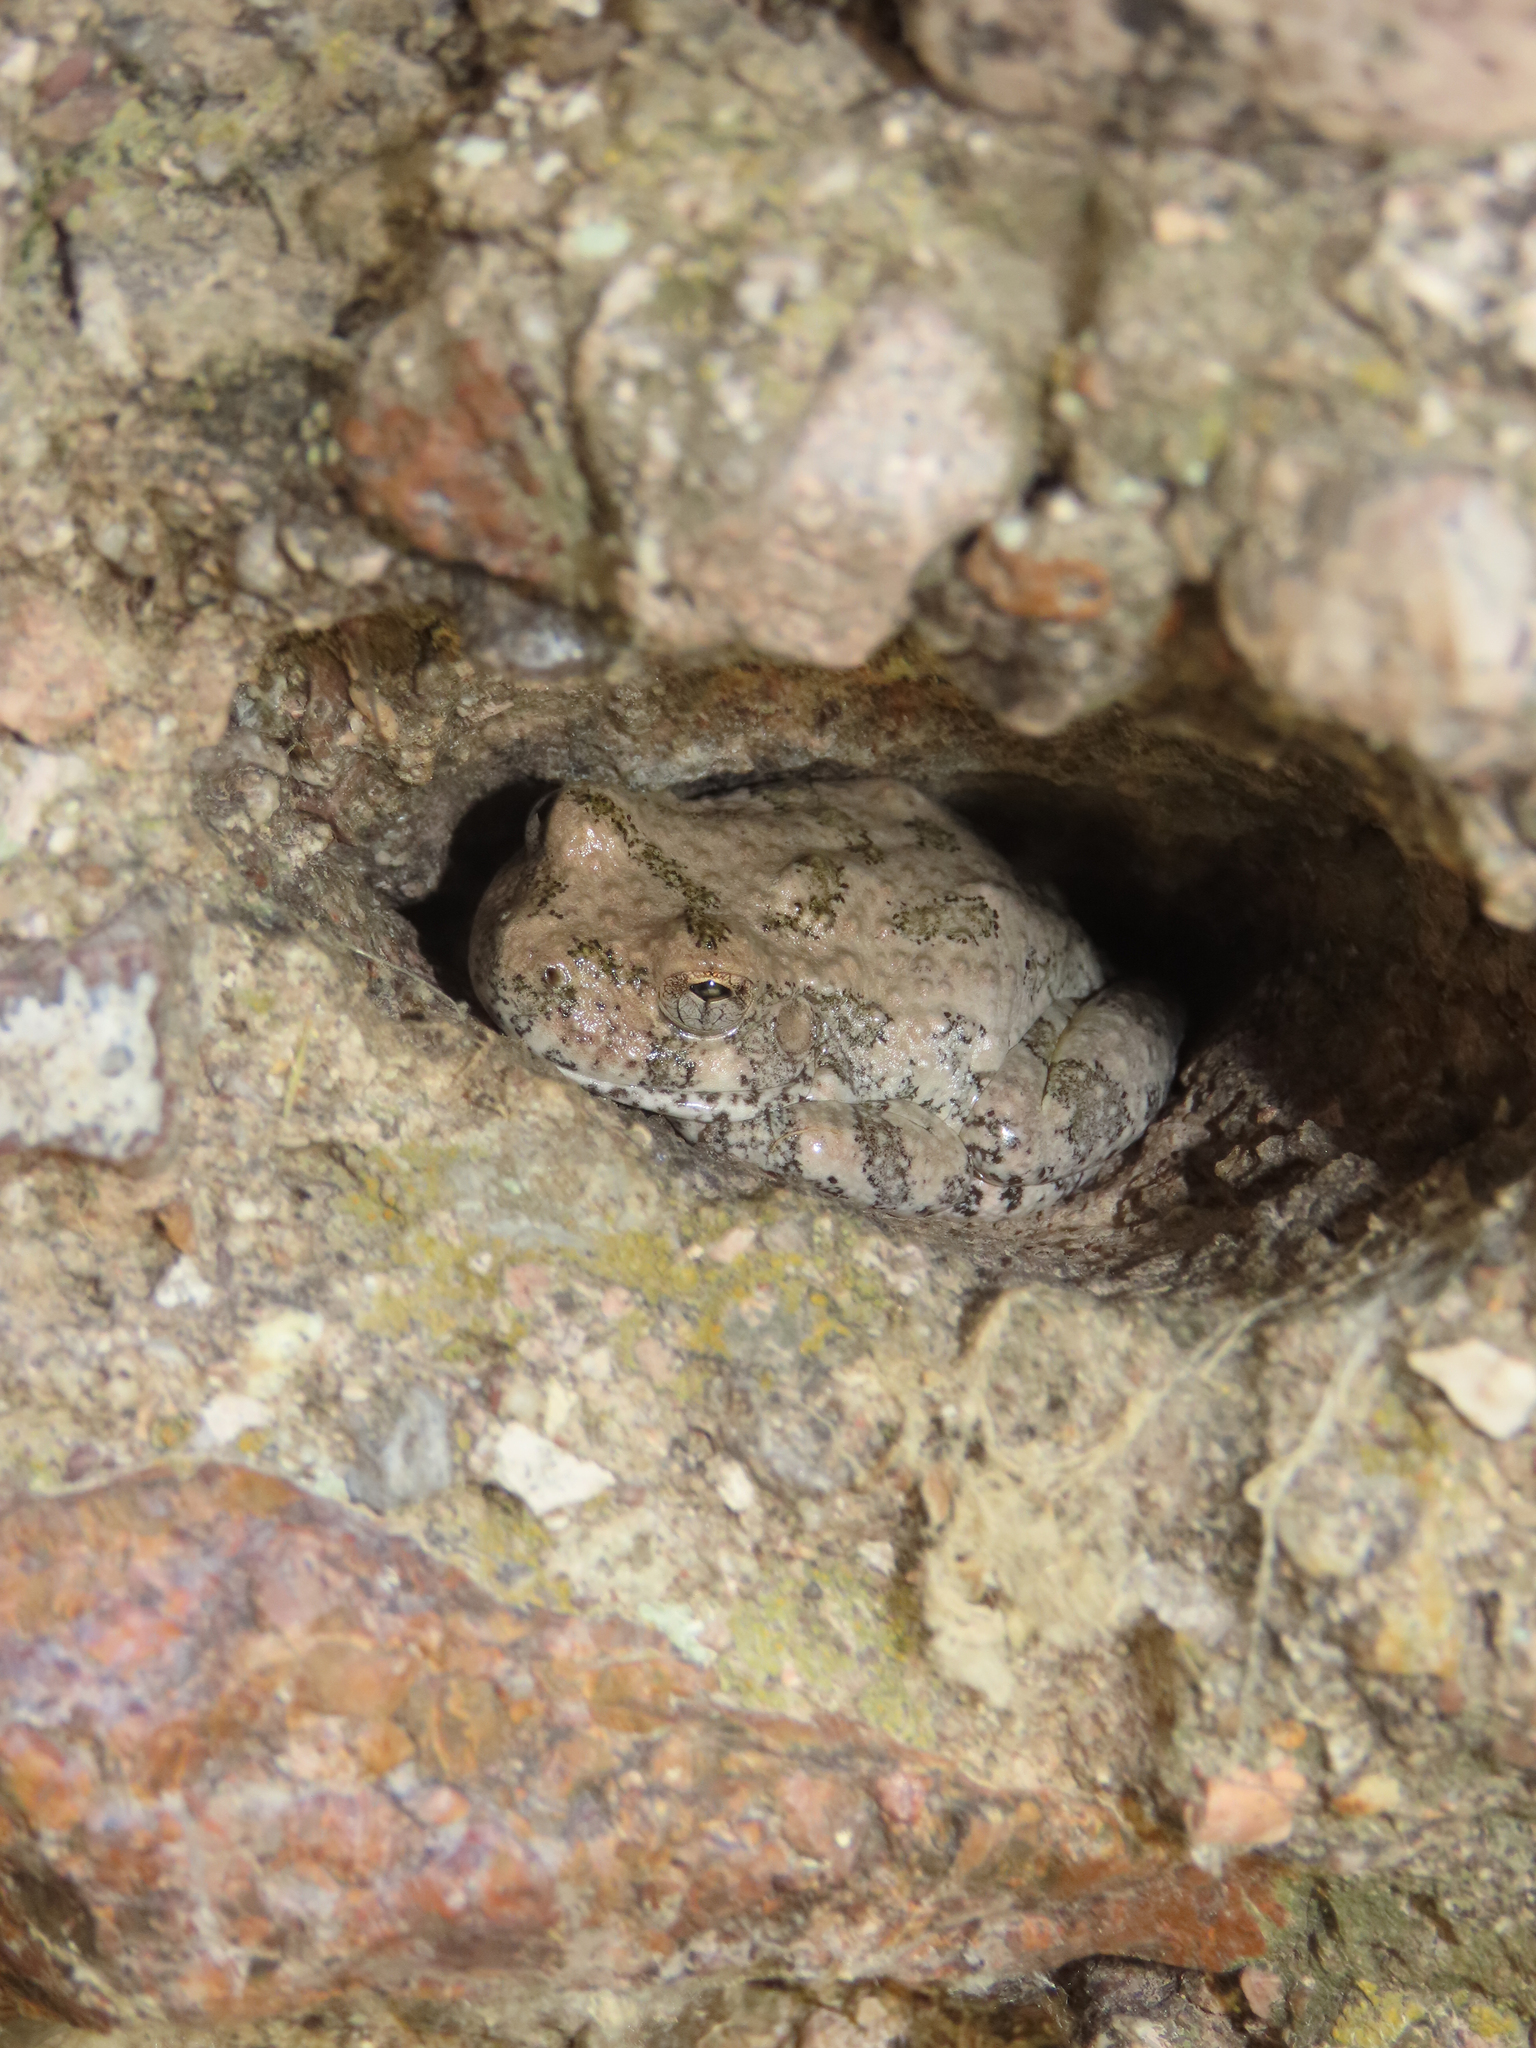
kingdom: Animalia
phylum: Chordata
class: Amphibia
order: Anura
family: Hylidae
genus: Dryophytes
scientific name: Dryophytes arenicolor
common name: Canyon treefrog
